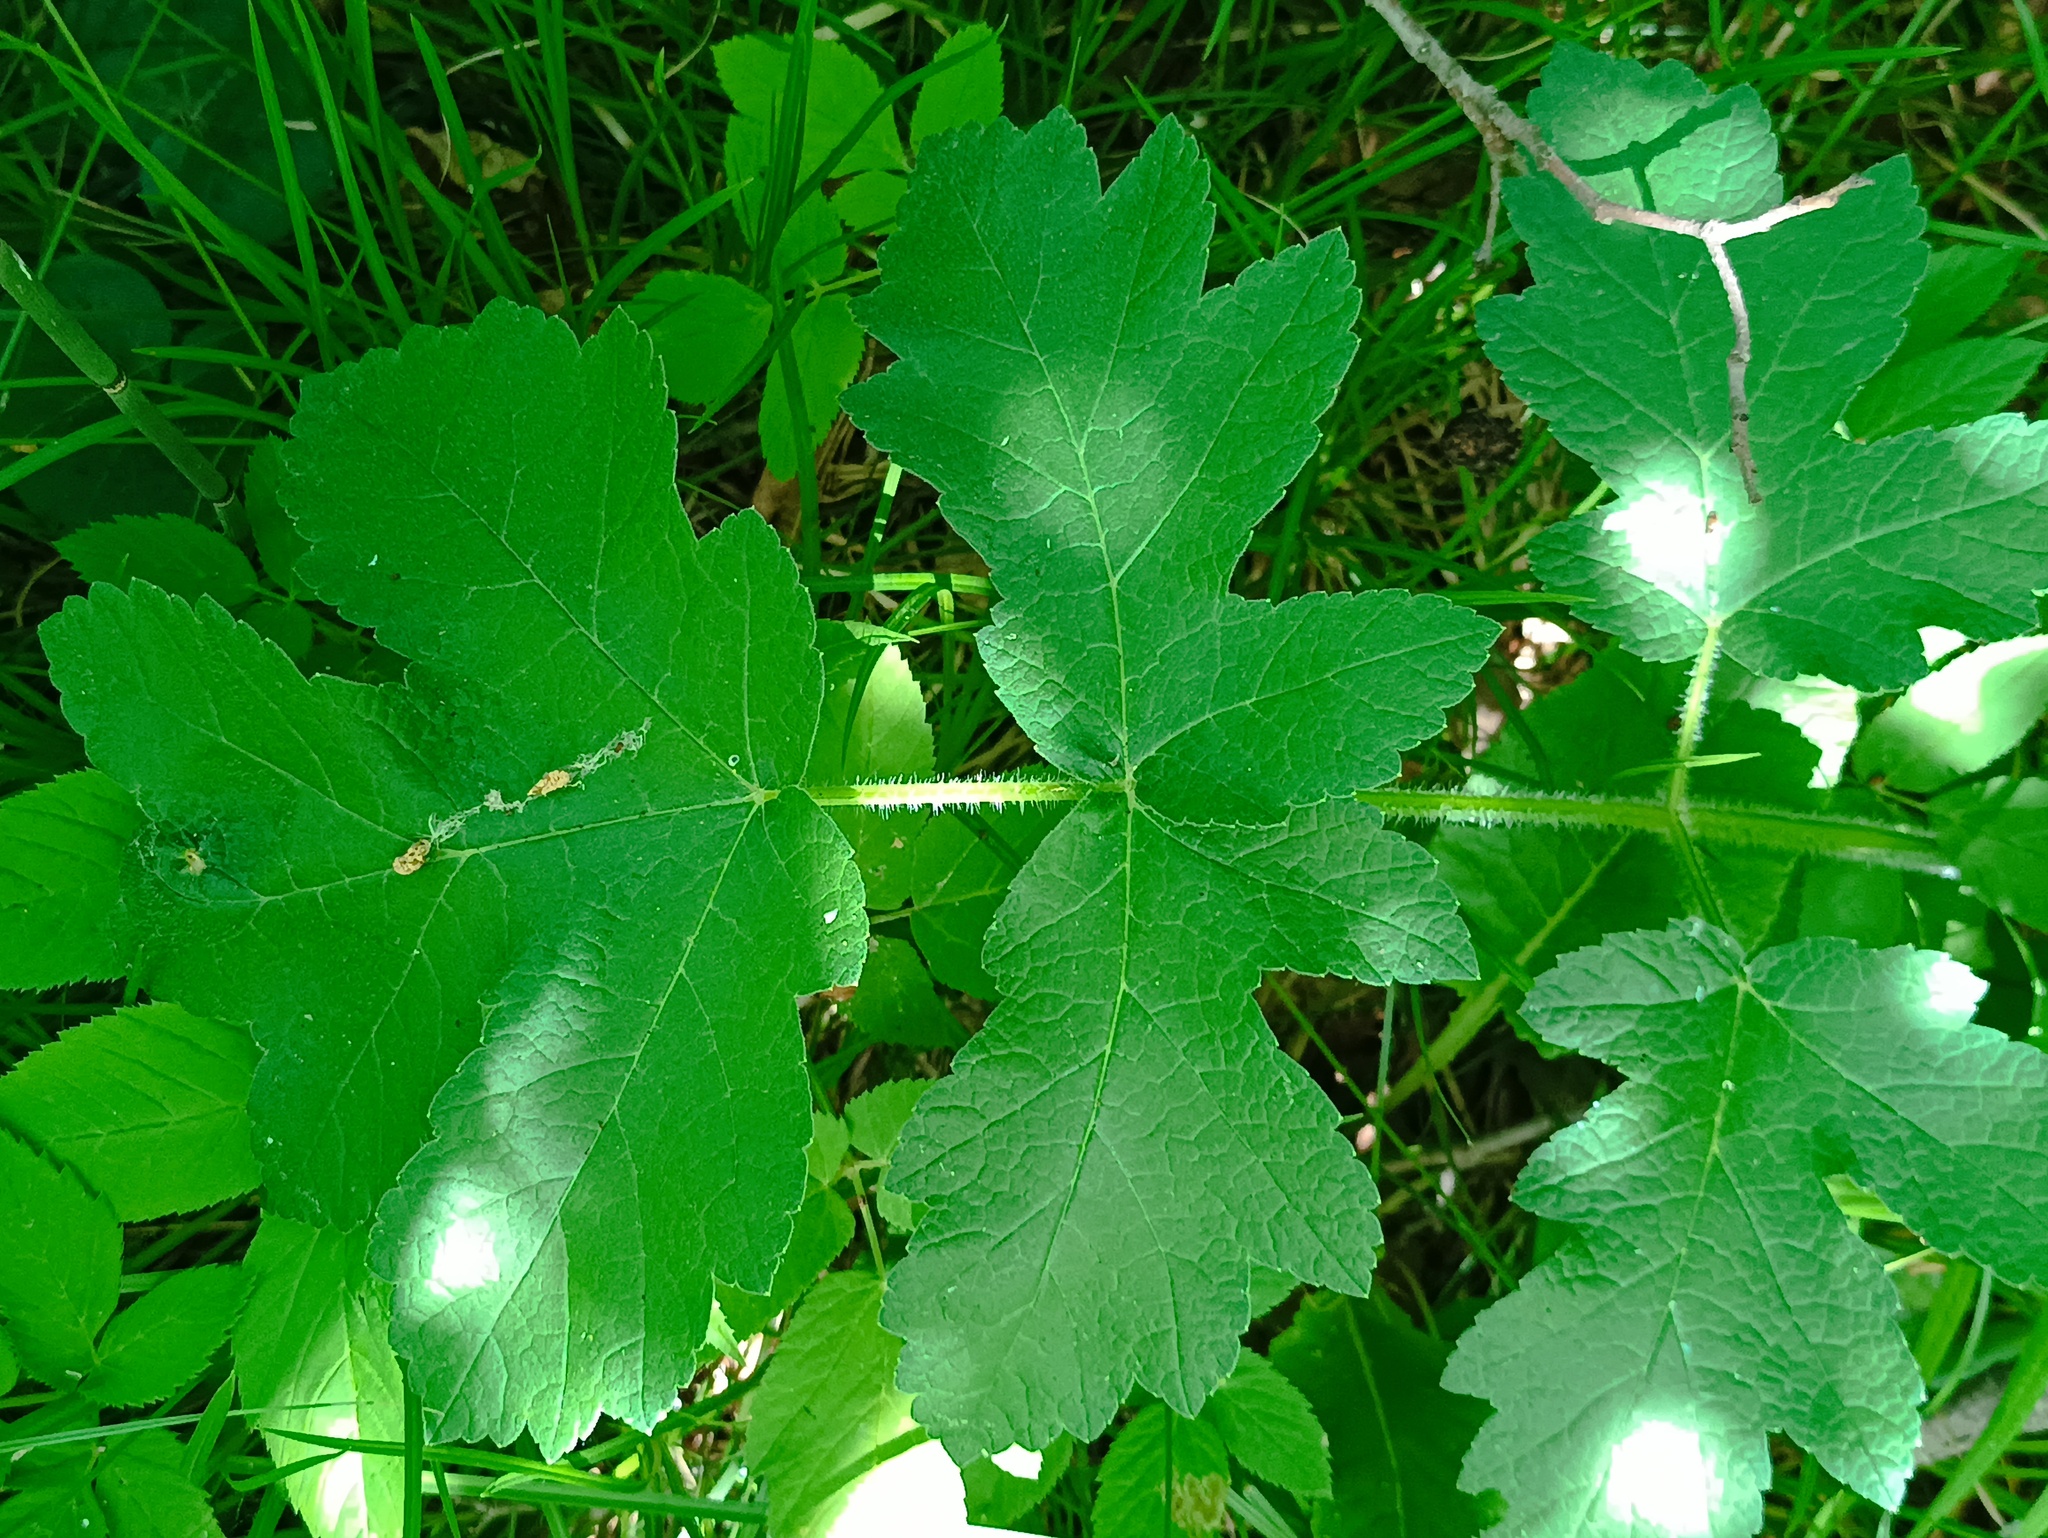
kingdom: Plantae
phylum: Tracheophyta
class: Magnoliopsida
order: Apiales
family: Apiaceae
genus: Heracleum
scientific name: Heracleum sphondylium
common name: Hogweed
